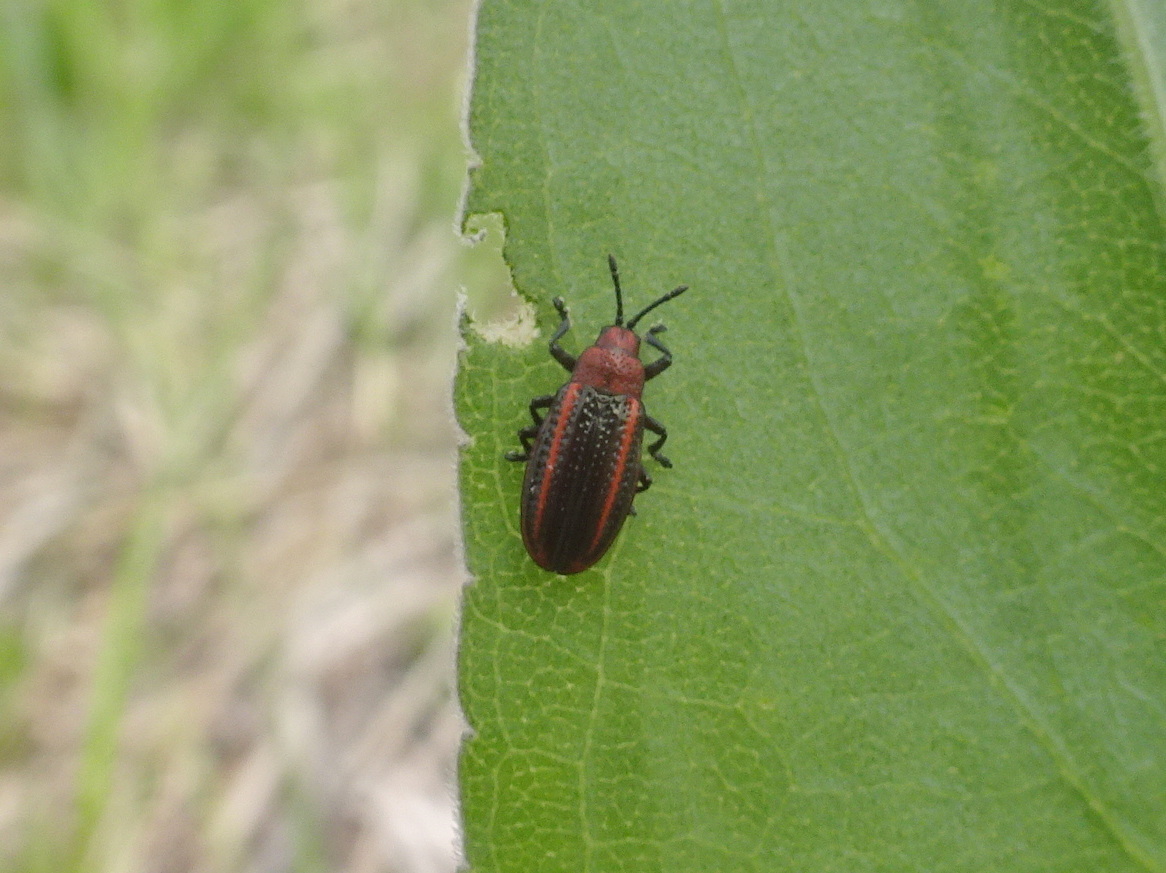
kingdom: Animalia
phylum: Arthropoda
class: Insecta
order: Coleoptera
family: Chrysomelidae
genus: Microrhopala
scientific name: Microrhopala vittata
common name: Goldenrod leaf miner beetle
